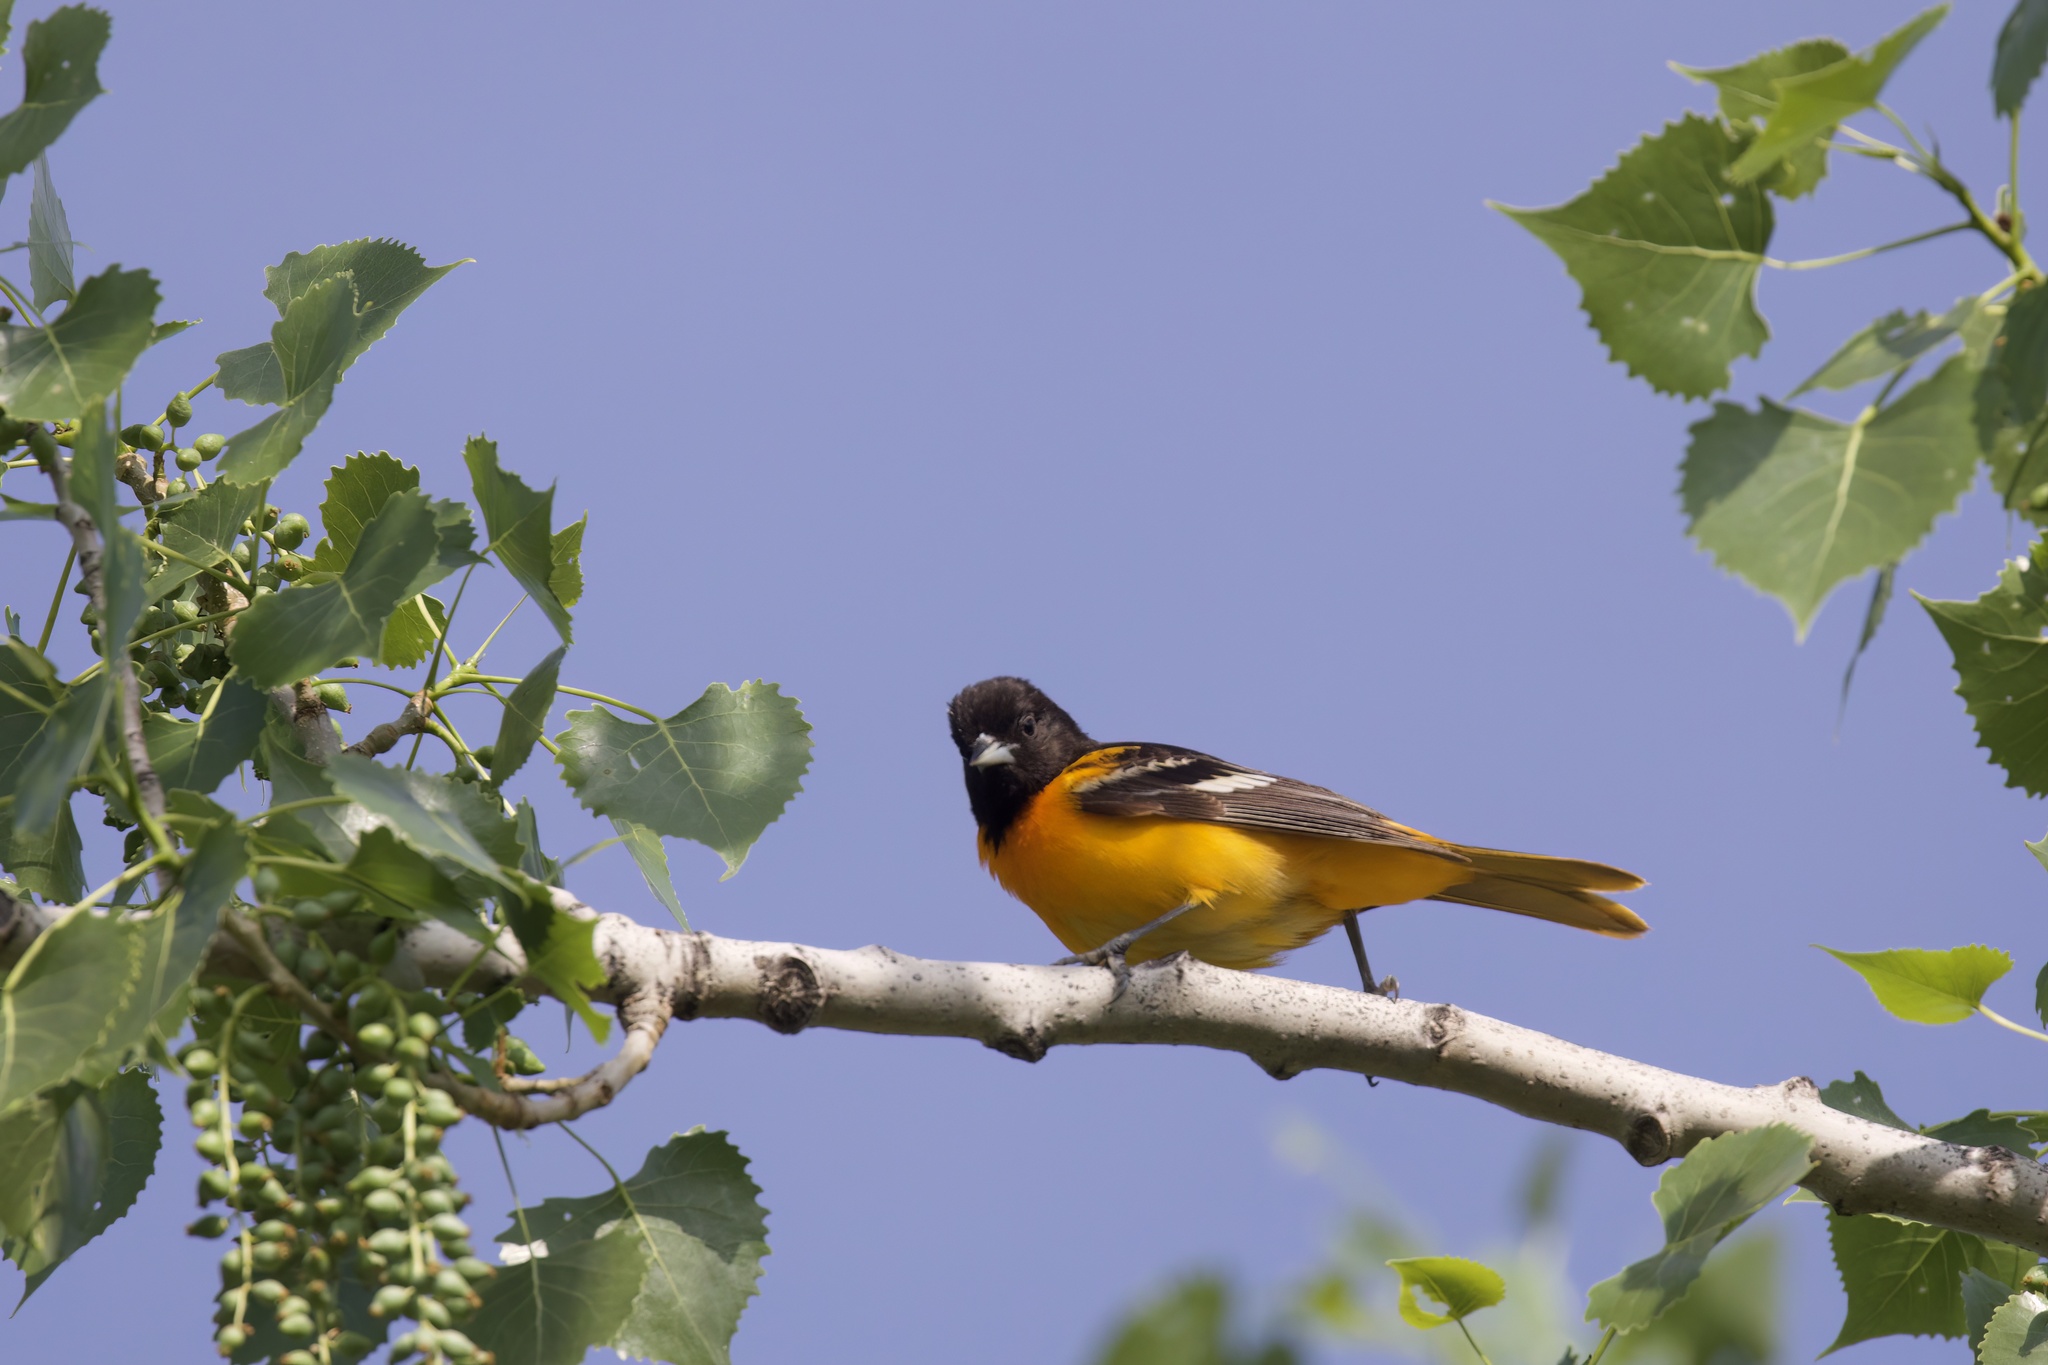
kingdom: Animalia
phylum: Chordata
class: Aves
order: Passeriformes
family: Icteridae
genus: Icterus
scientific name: Icterus galbula
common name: Baltimore oriole
